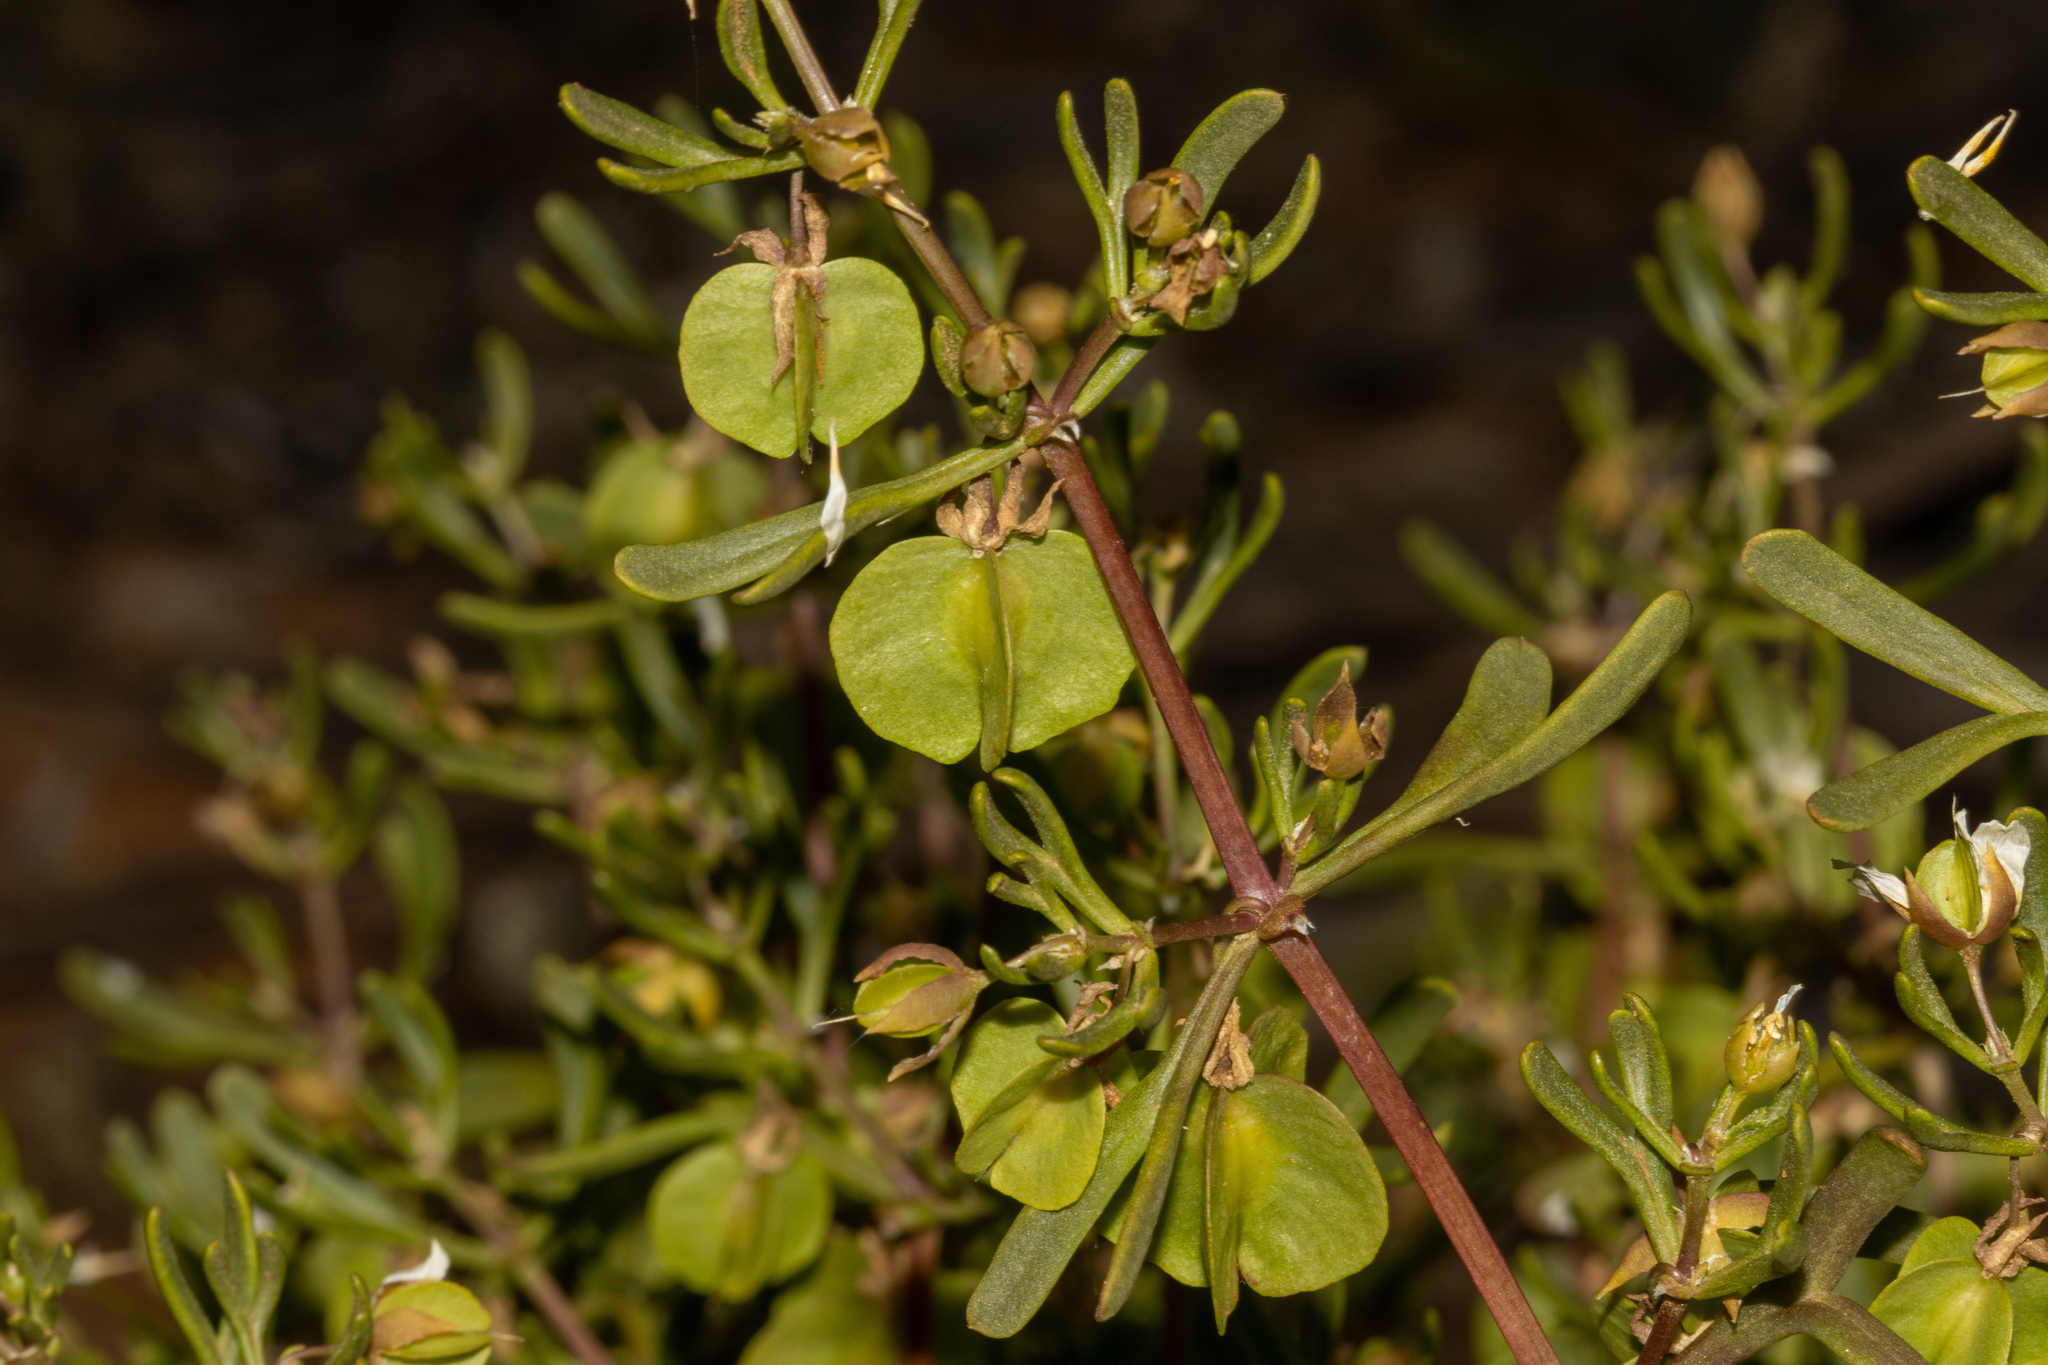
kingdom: Plantae
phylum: Tracheophyta
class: Magnoliopsida
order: Zygophyllales
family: Zygophyllaceae
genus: Roepera
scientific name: Roepera aurantiaca
